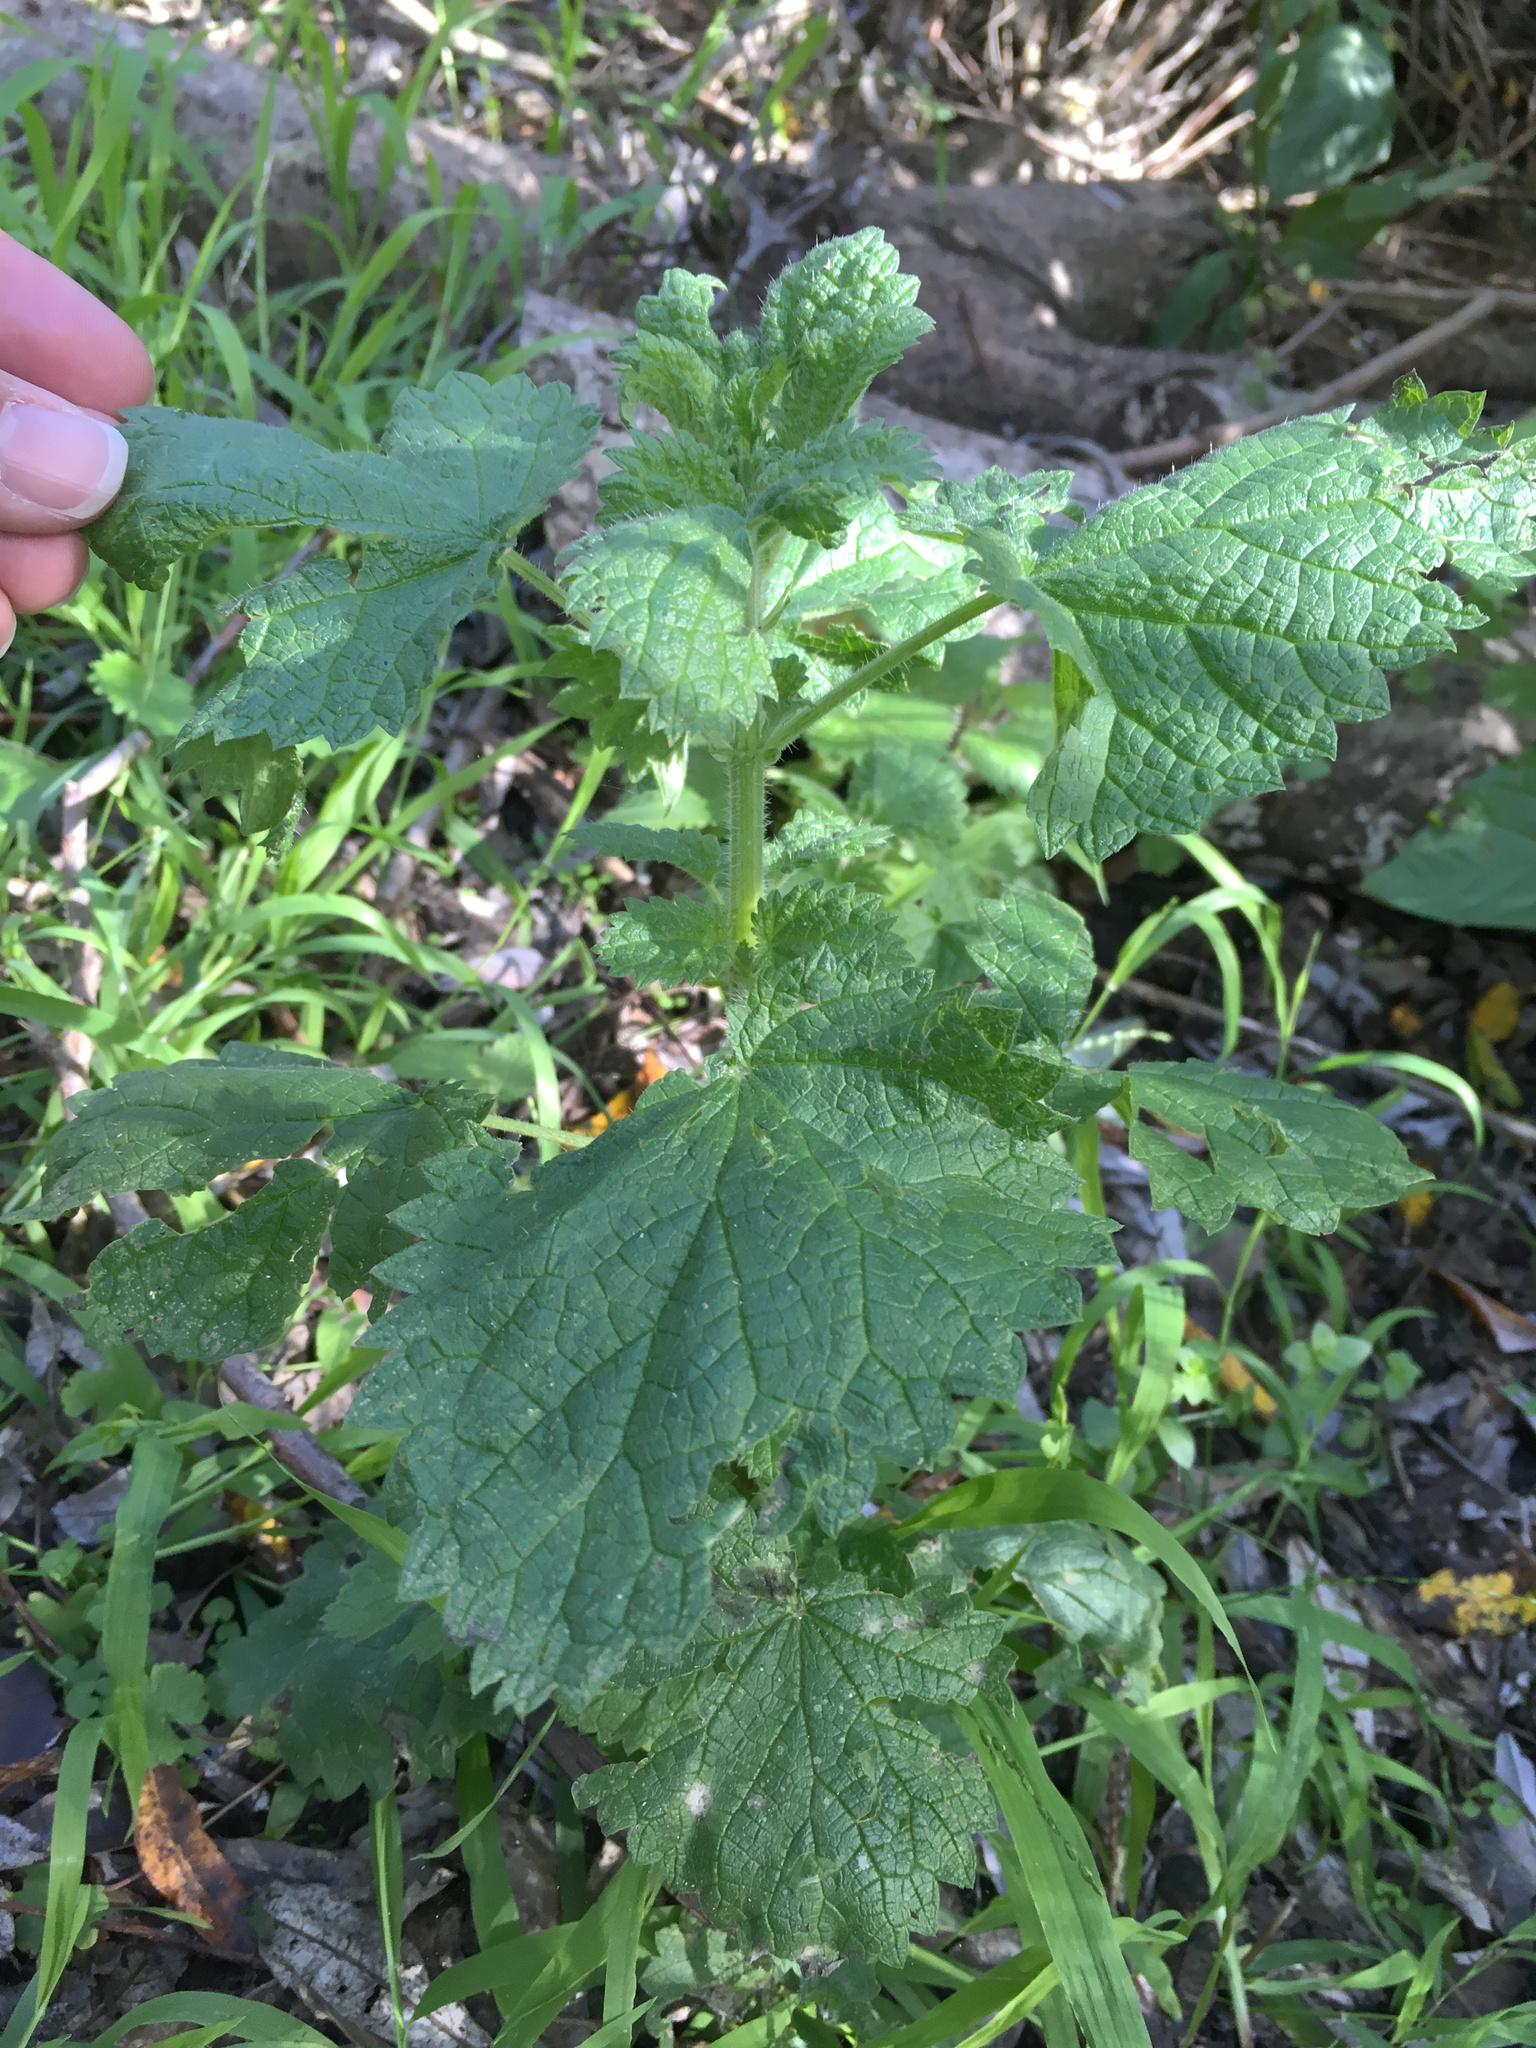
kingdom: Plantae
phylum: Tracheophyta
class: Magnoliopsida
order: Rosales
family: Urticaceae
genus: Urtica
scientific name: Urtica dioica
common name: Common nettle
